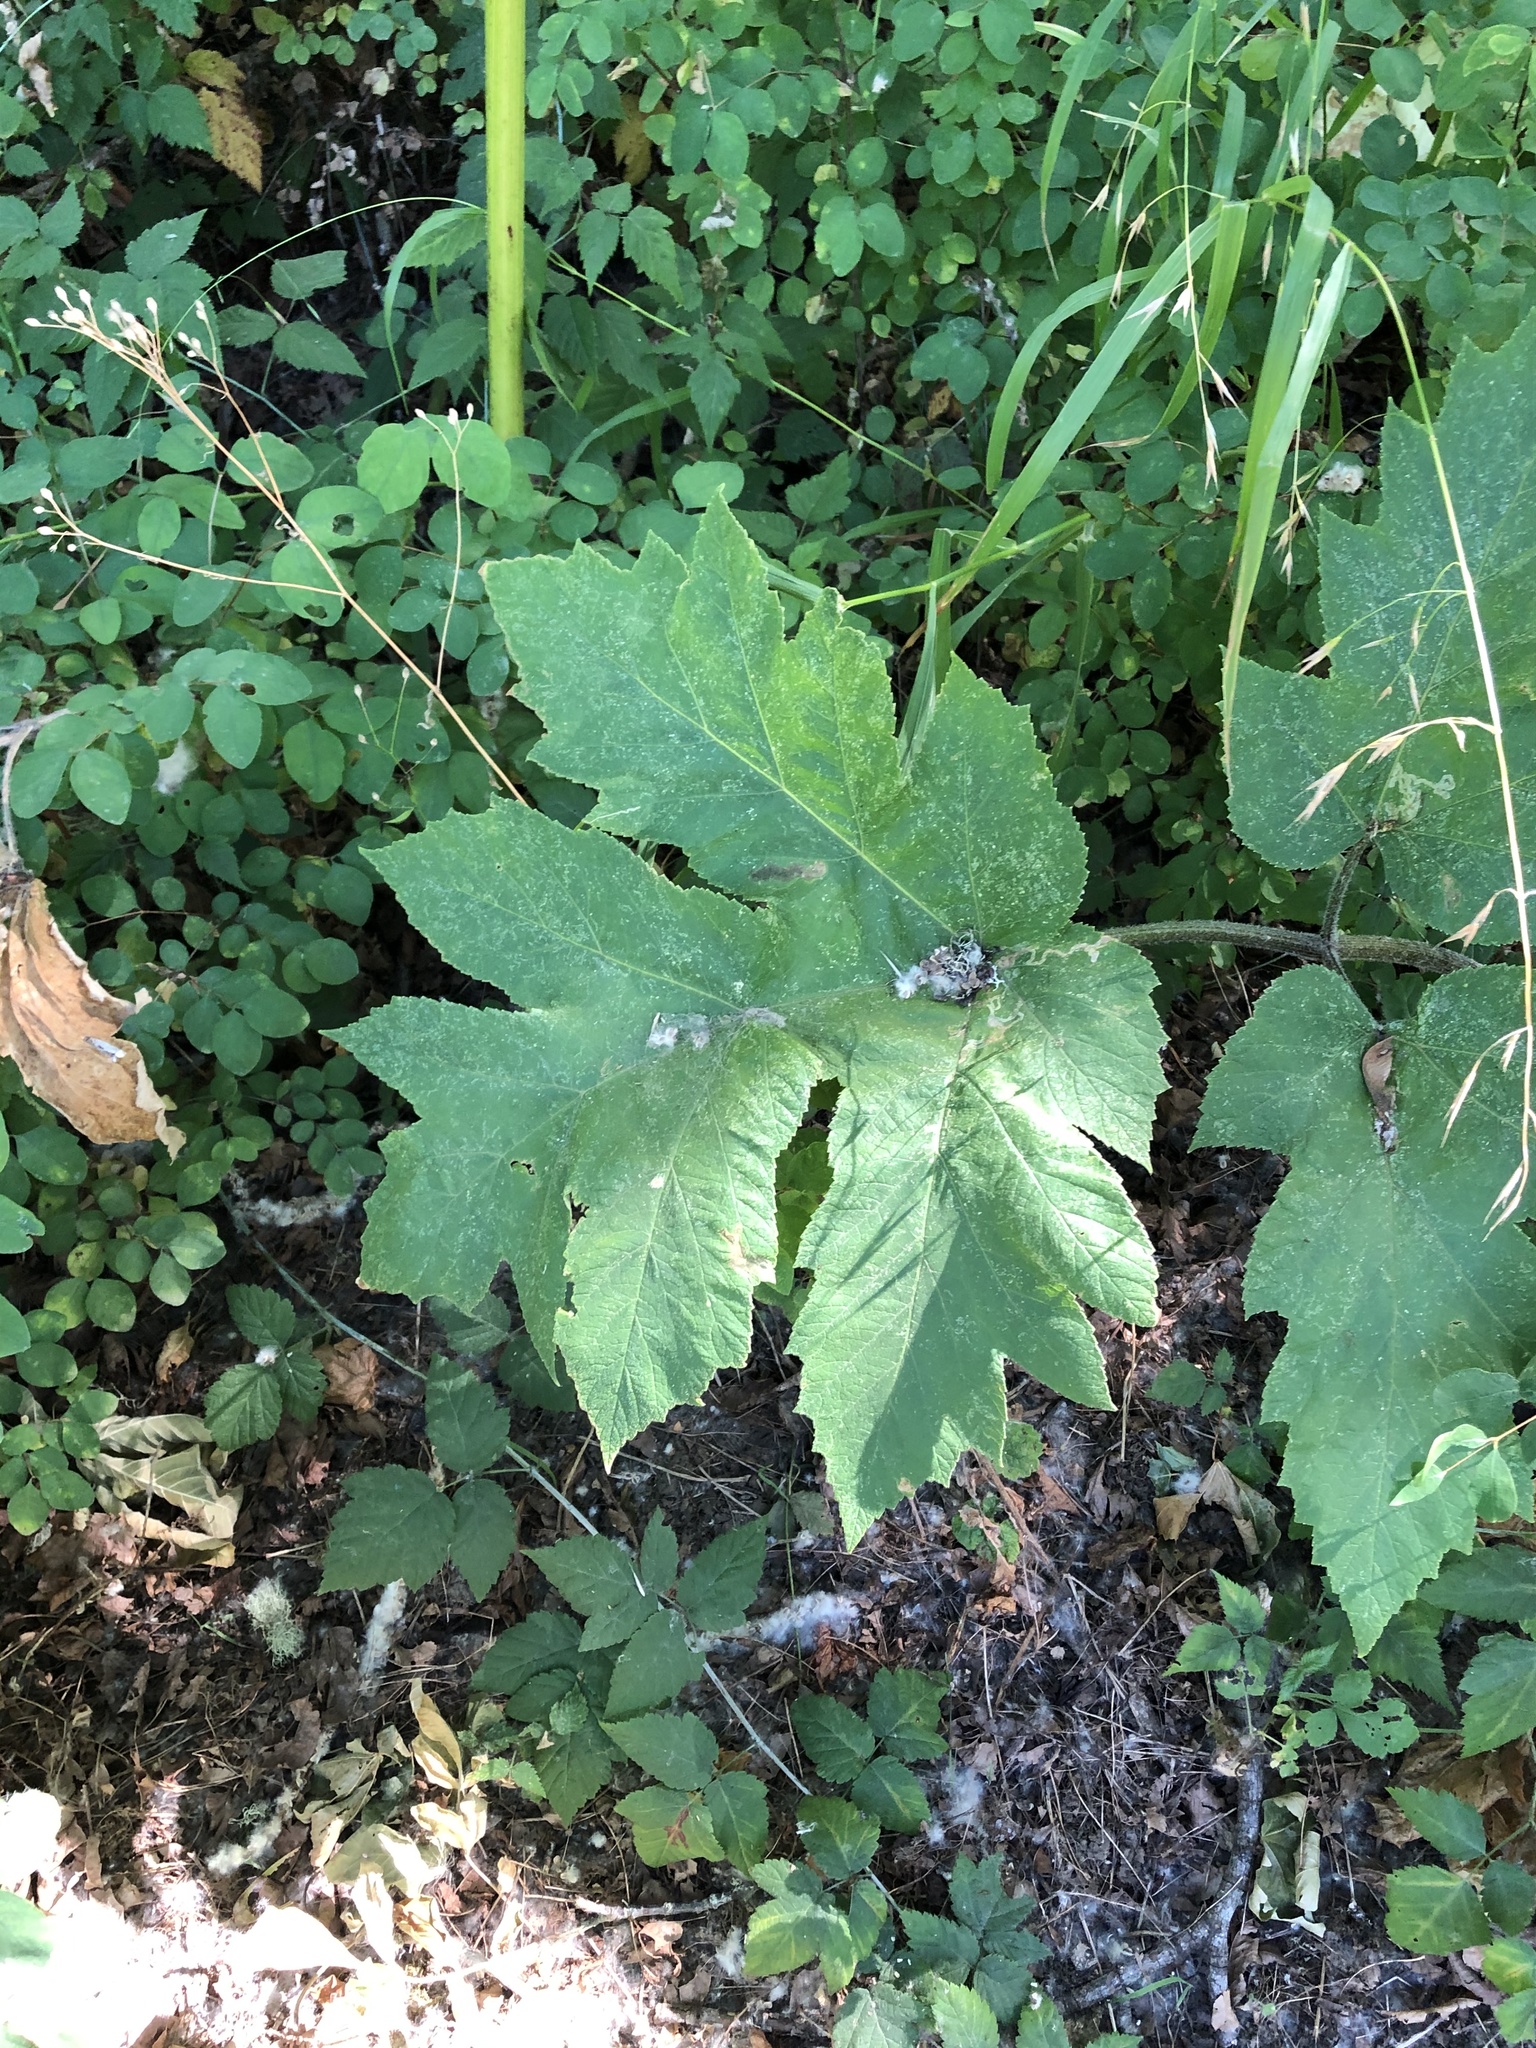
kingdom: Plantae
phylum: Tracheophyta
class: Magnoliopsida
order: Apiales
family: Apiaceae
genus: Heracleum
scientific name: Heracleum maximum
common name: American cow parsnip
